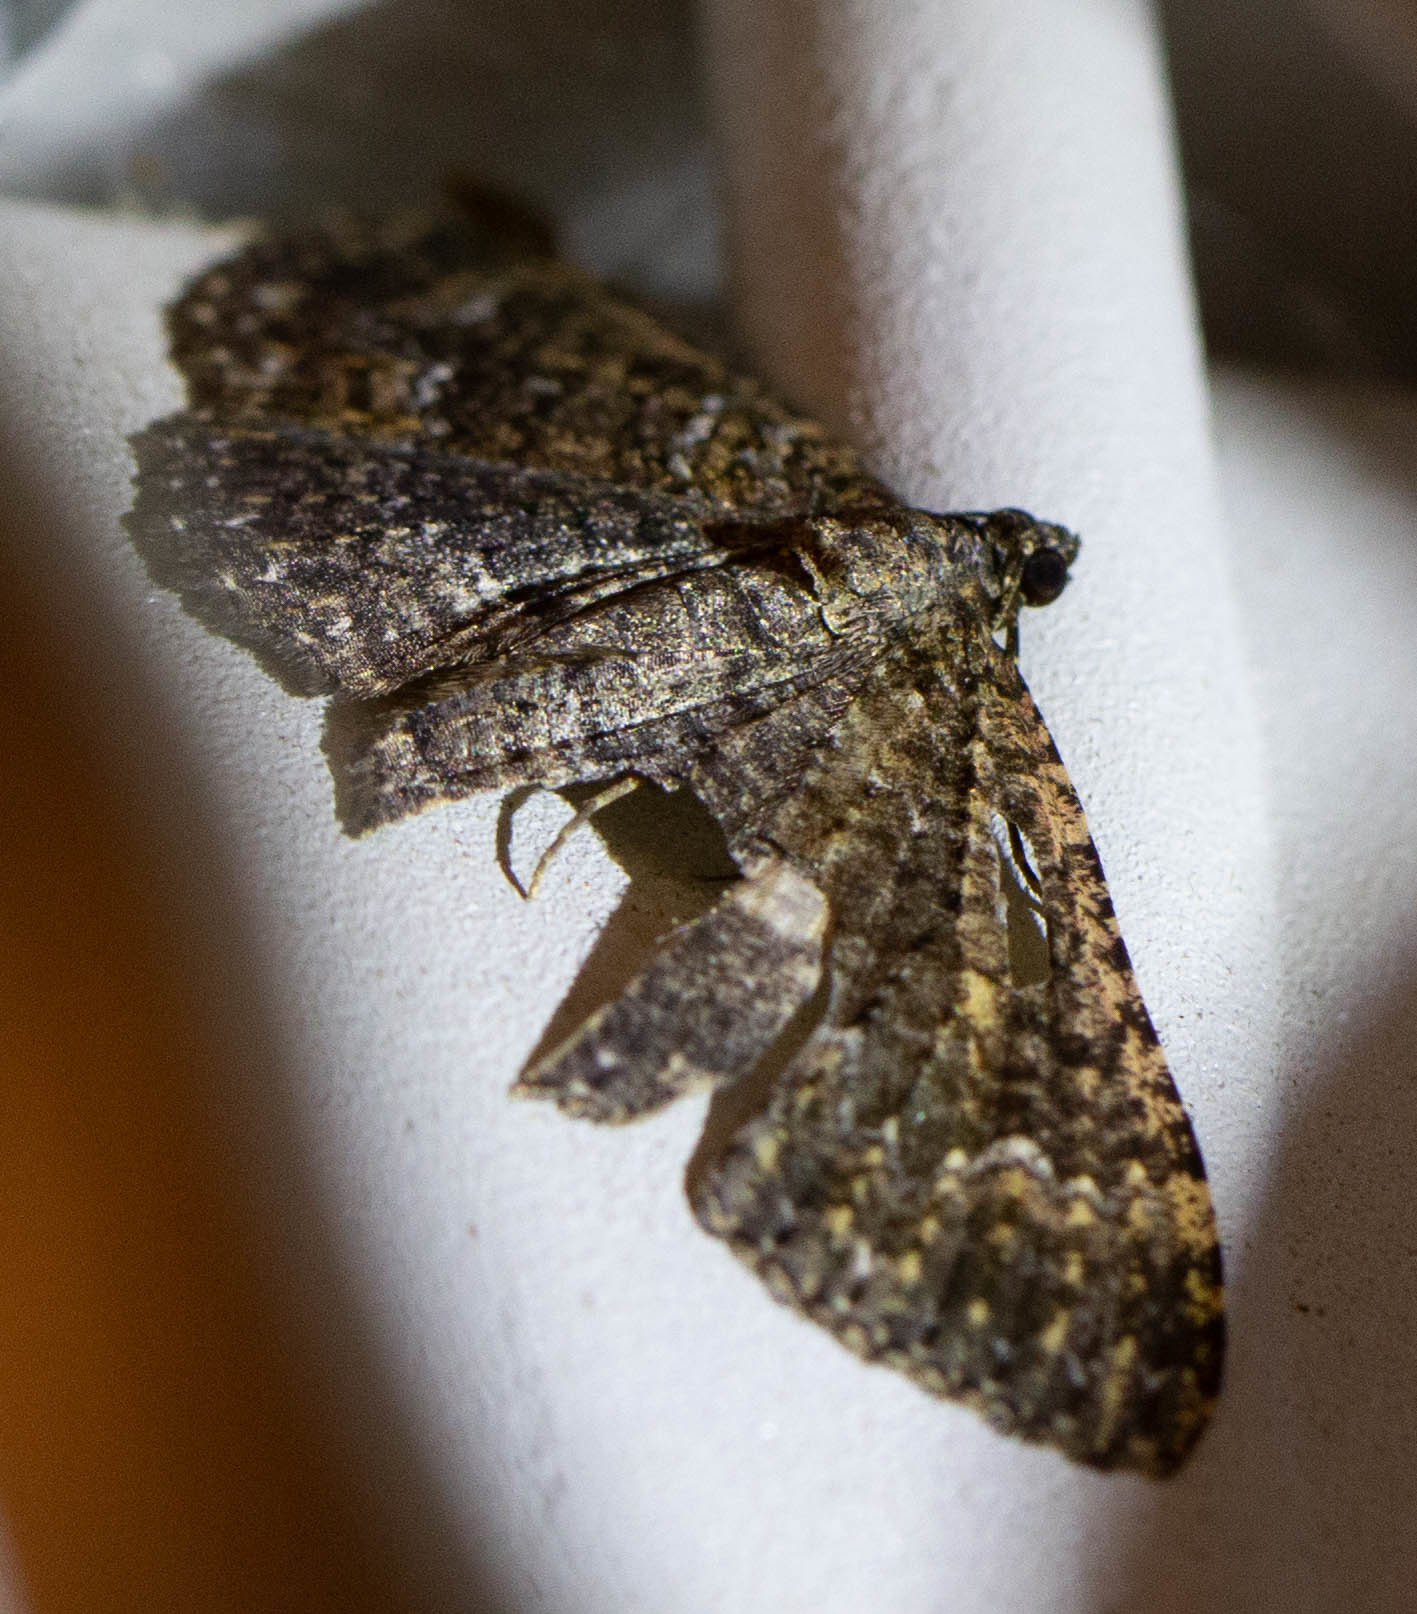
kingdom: Animalia
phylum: Arthropoda
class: Insecta
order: Lepidoptera
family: Geometridae
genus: Disclisioprocta
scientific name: Disclisioprocta stellata
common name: Somber carpet
